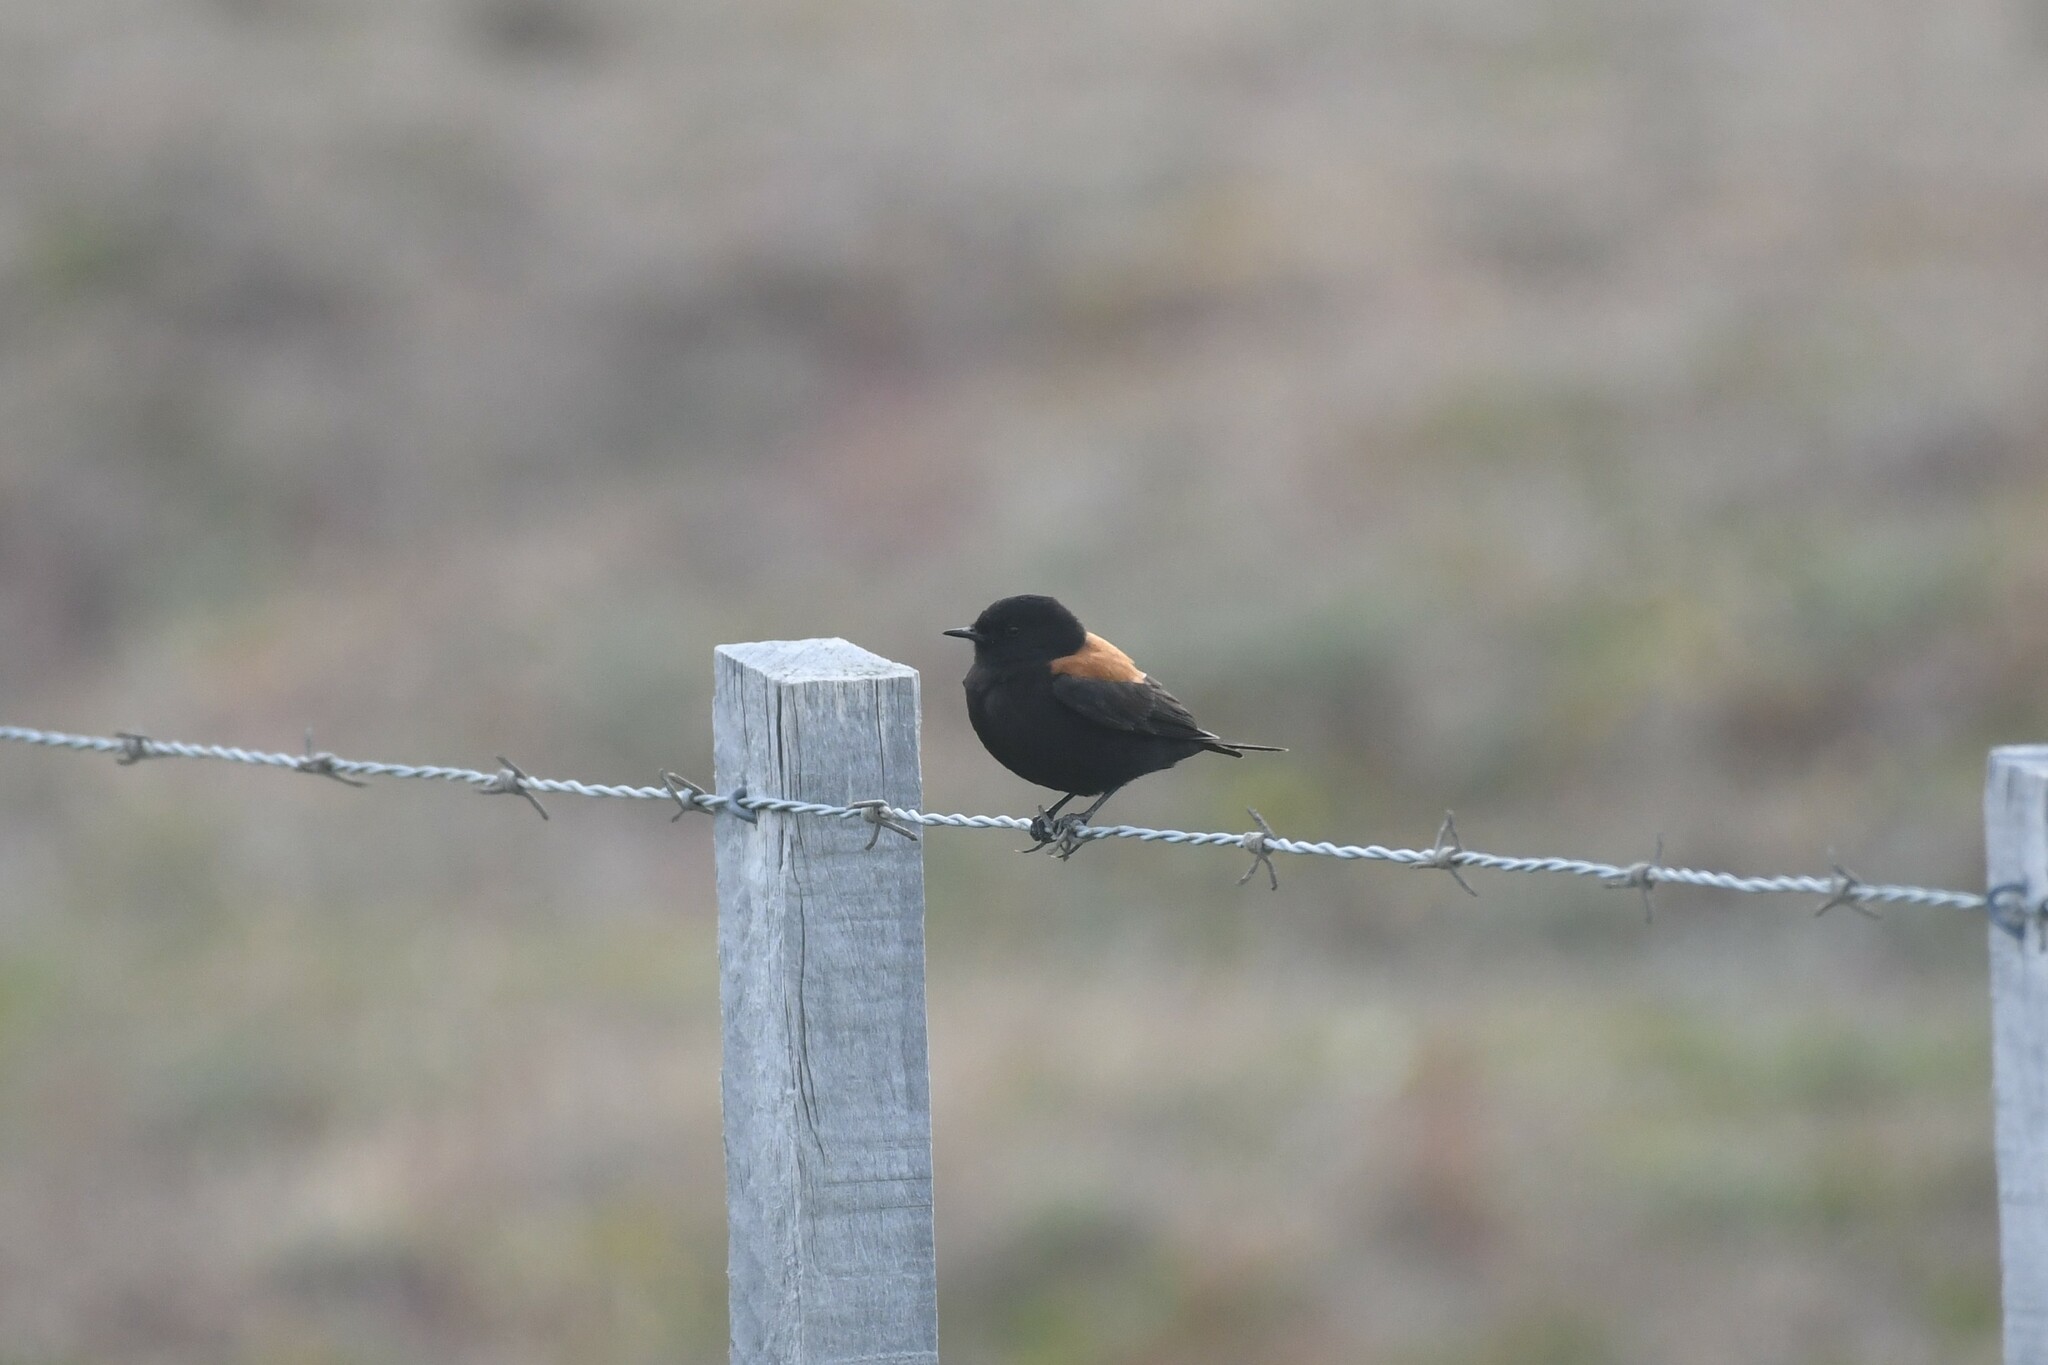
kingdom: Animalia
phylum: Chordata
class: Aves
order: Passeriformes
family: Tyrannidae
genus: Lessonia
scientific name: Lessonia rufa
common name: Austral negrito
